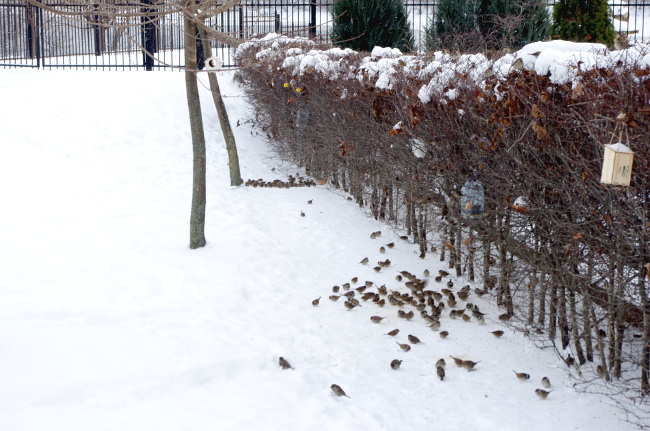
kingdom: Animalia
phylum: Chordata
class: Aves
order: Passeriformes
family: Passeridae
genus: Passer
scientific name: Passer domesticus
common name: House sparrow
